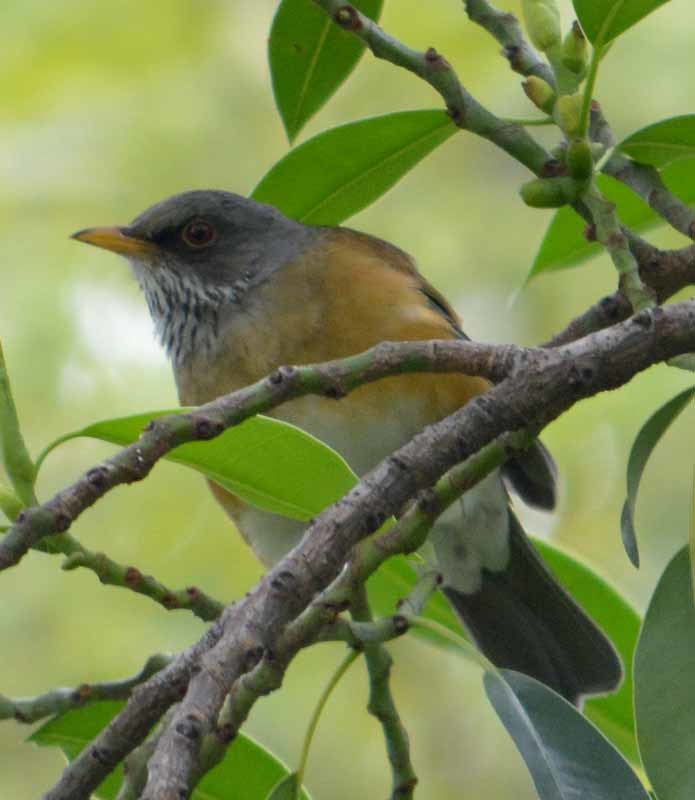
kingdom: Animalia
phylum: Chordata
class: Aves
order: Passeriformes
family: Turdidae
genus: Turdus
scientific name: Turdus rufopalliatus
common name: Rufous-backed robin
